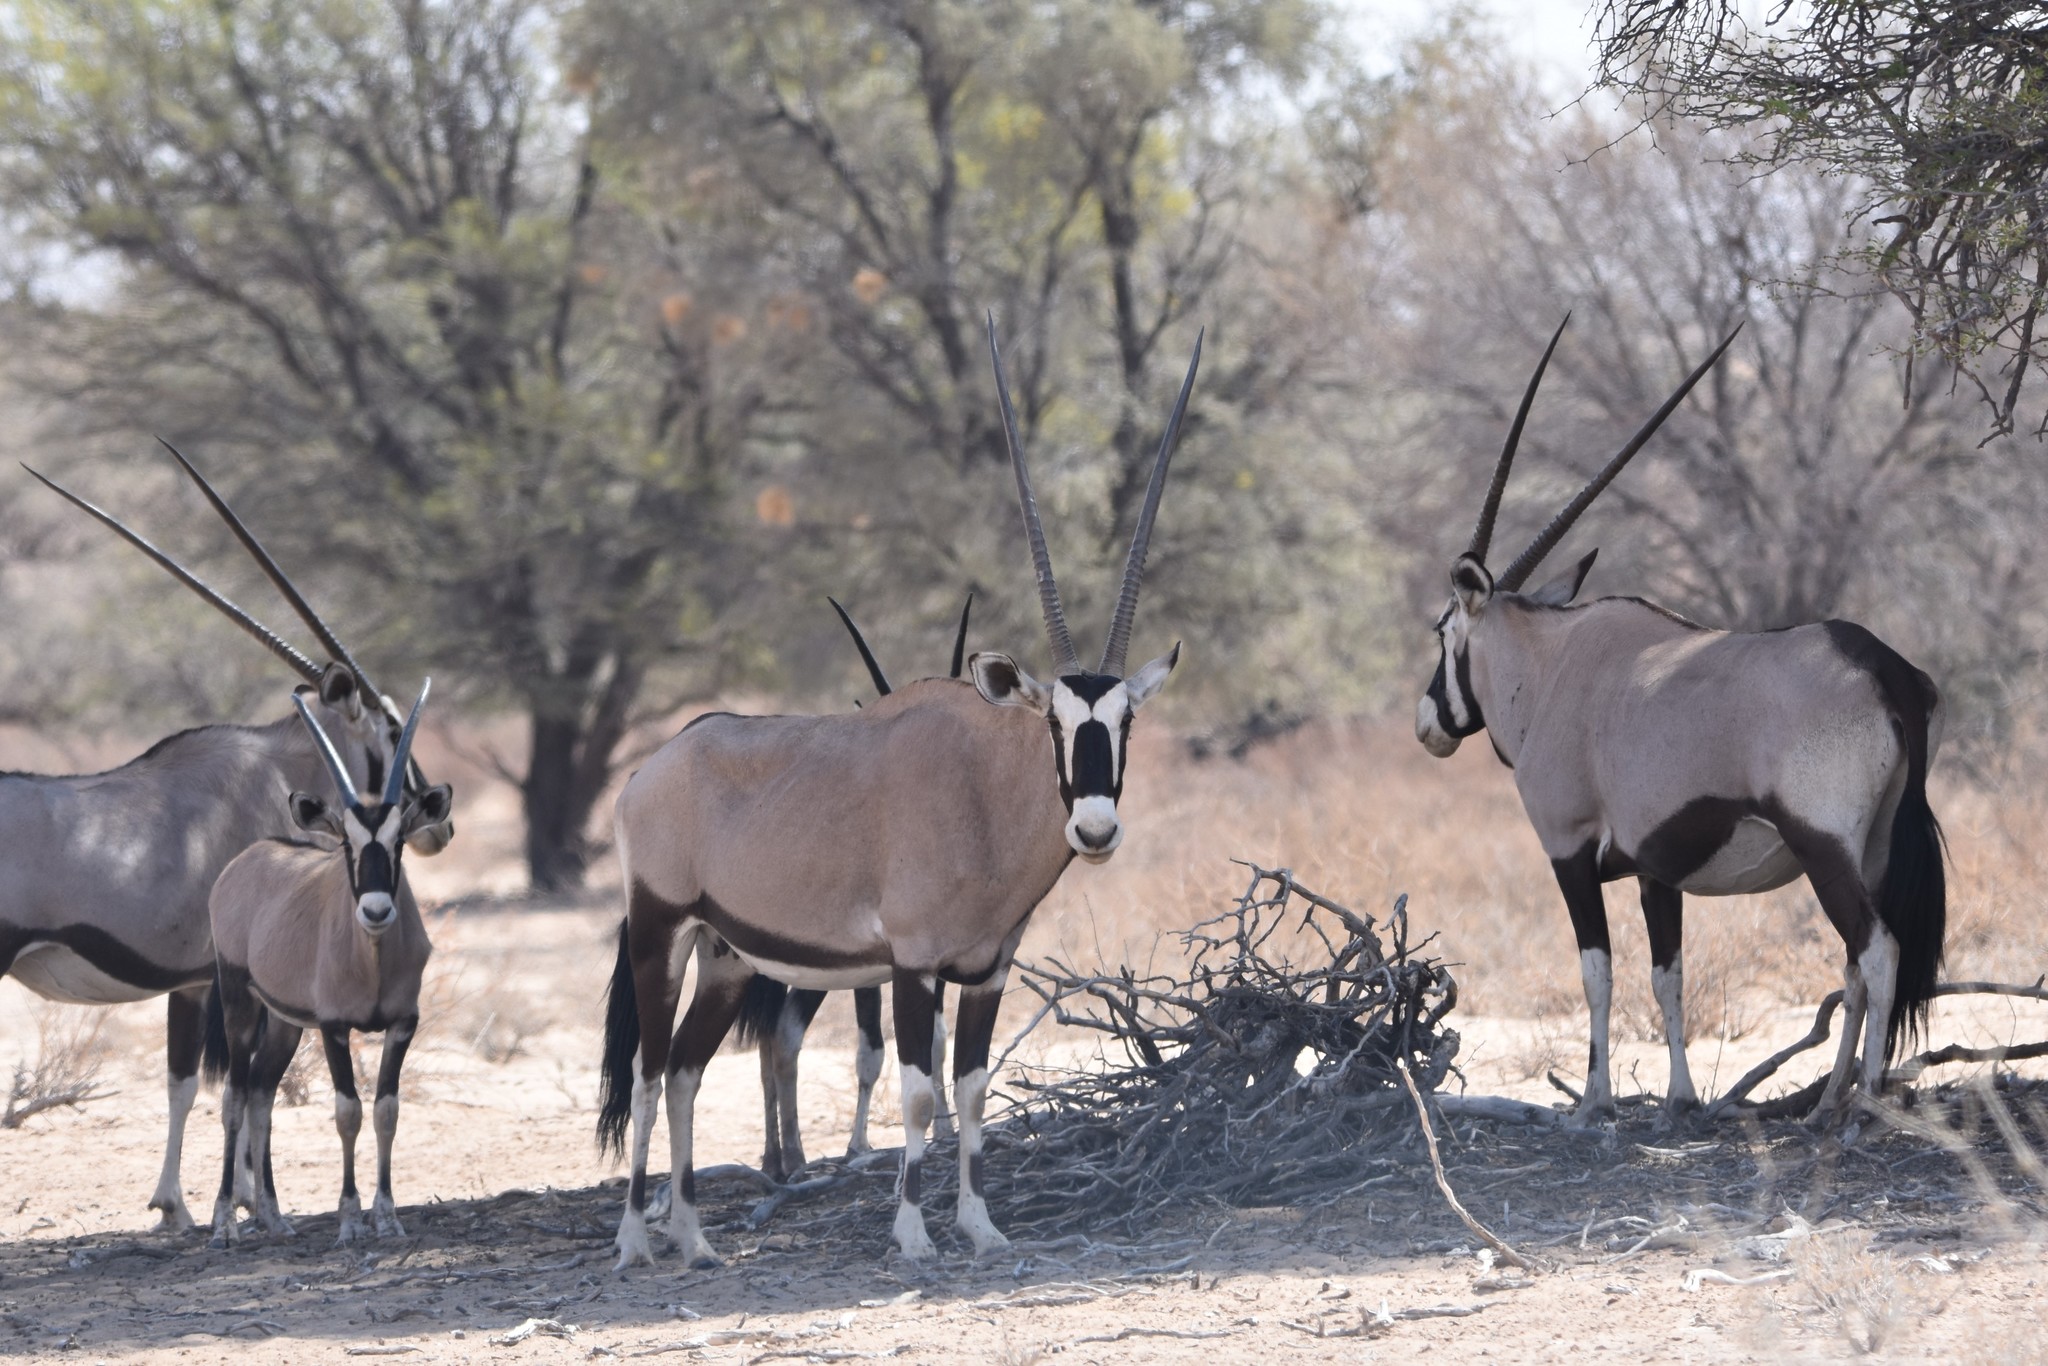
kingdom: Animalia
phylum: Chordata
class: Mammalia
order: Artiodactyla
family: Bovidae
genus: Oryx
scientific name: Oryx gazella
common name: Gemsbok
